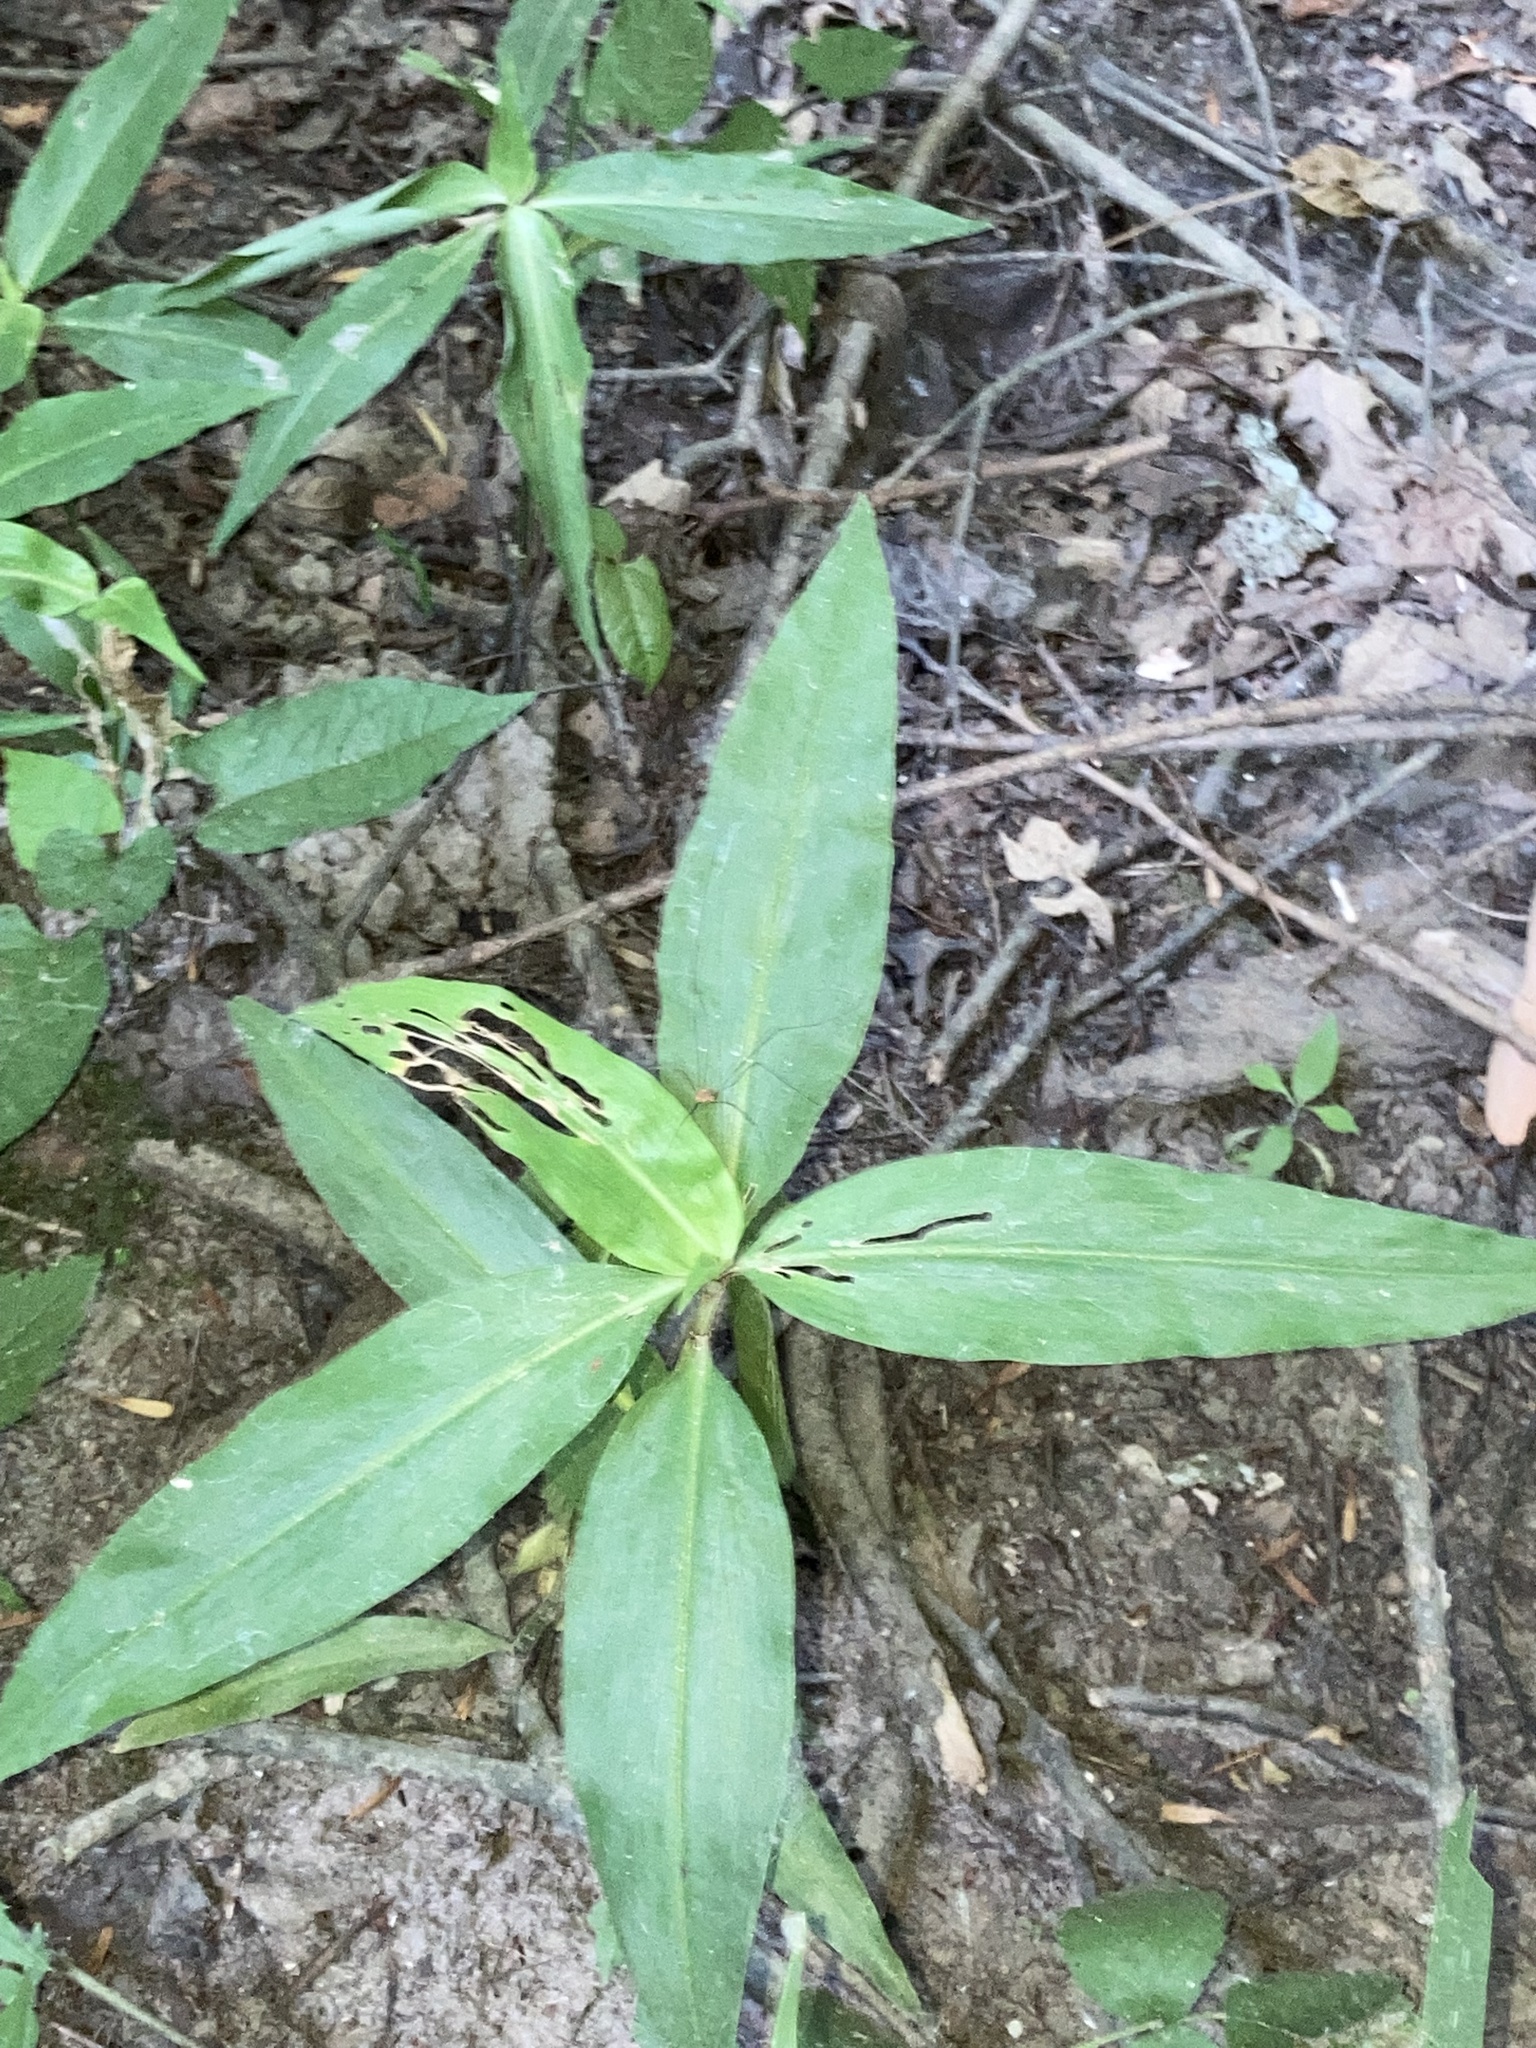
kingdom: Plantae
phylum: Tracheophyta
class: Liliopsida
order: Commelinales
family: Commelinaceae
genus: Commelina
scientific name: Commelina virginica
